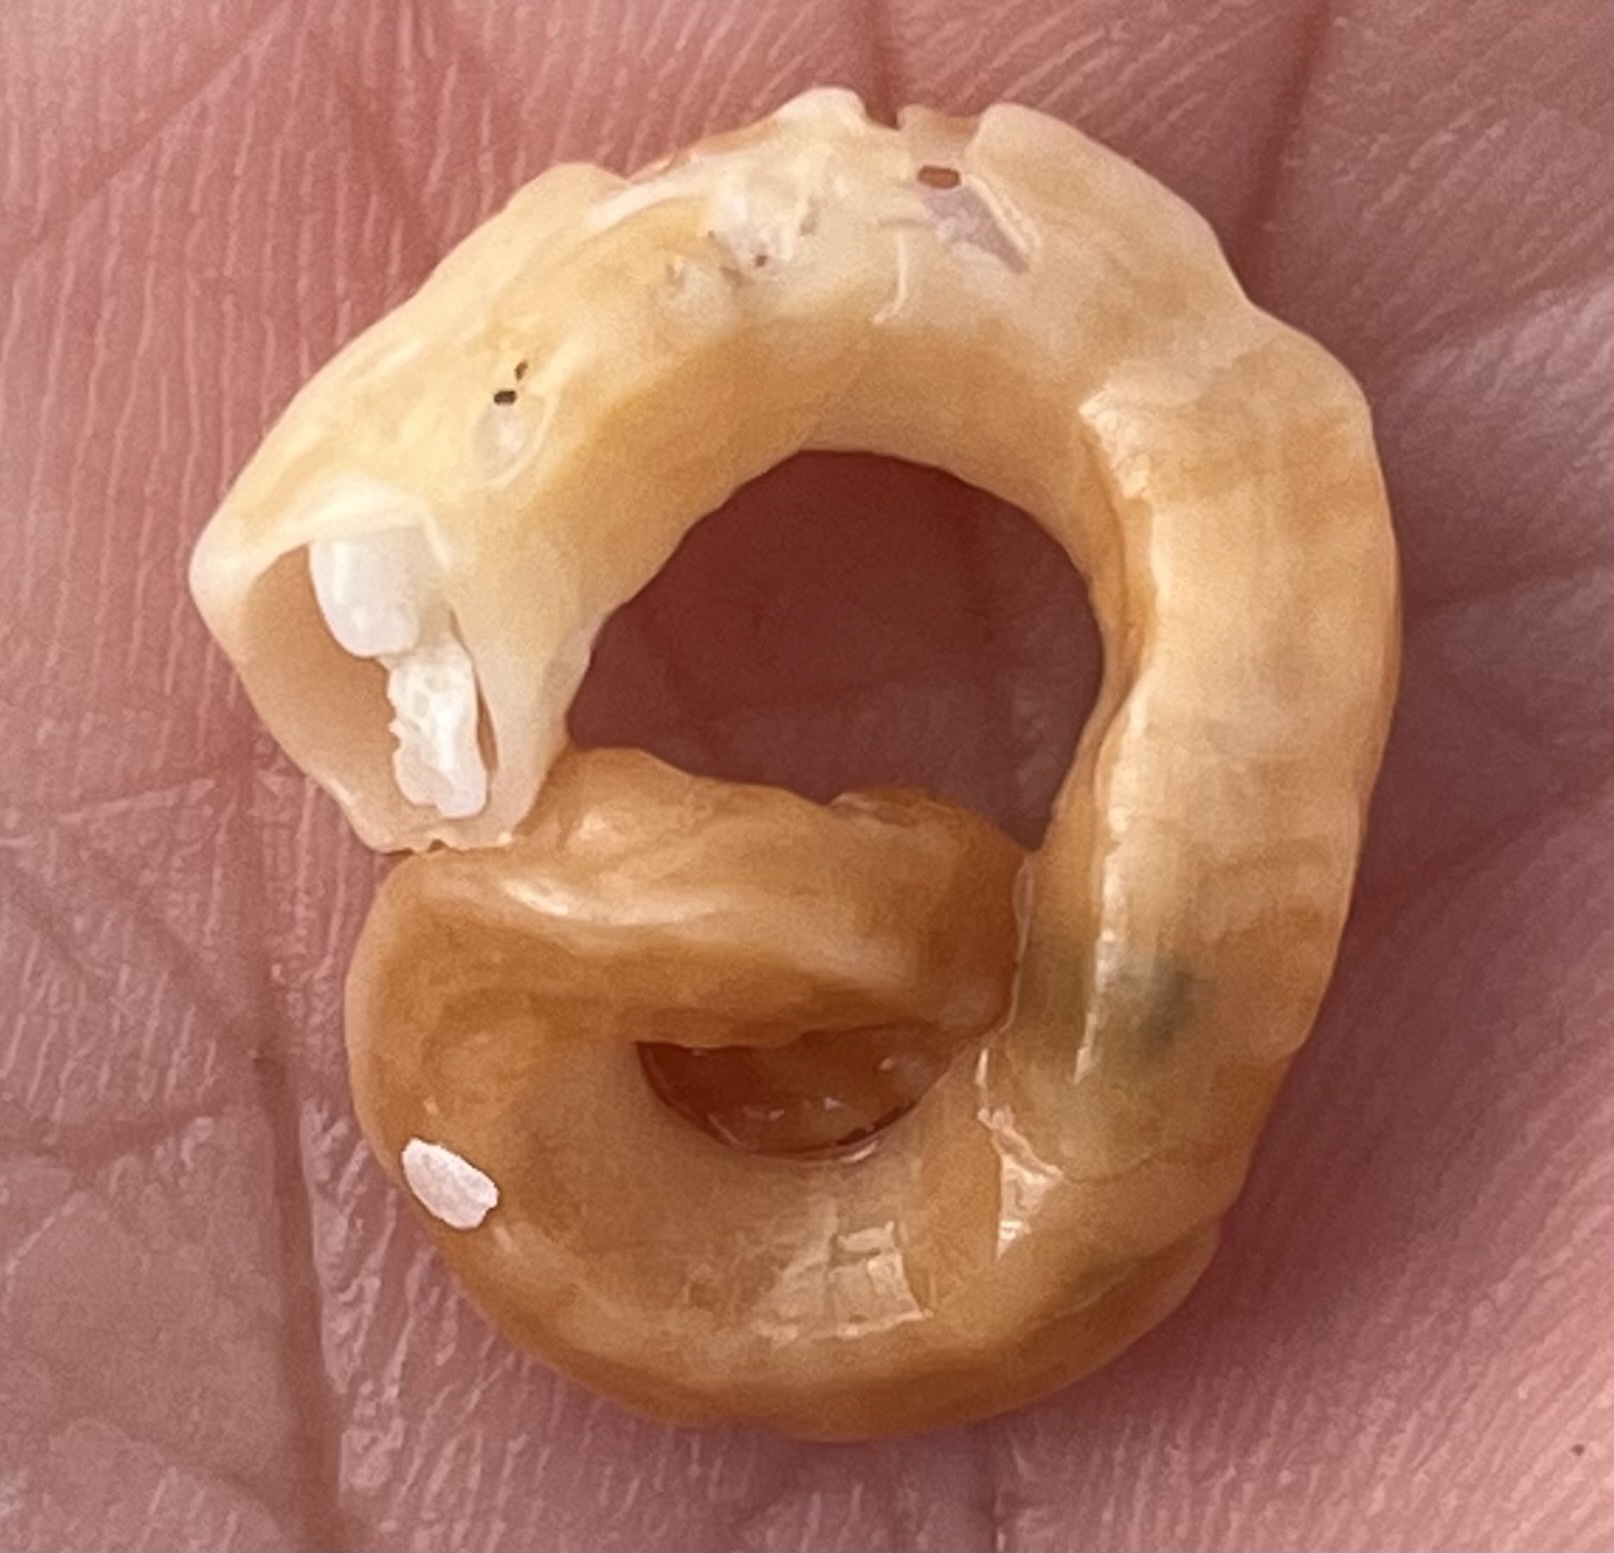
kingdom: Animalia
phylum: Mollusca
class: Gastropoda
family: Turritellidae
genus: Vermicularia
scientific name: Vermicularia lumbricalis
